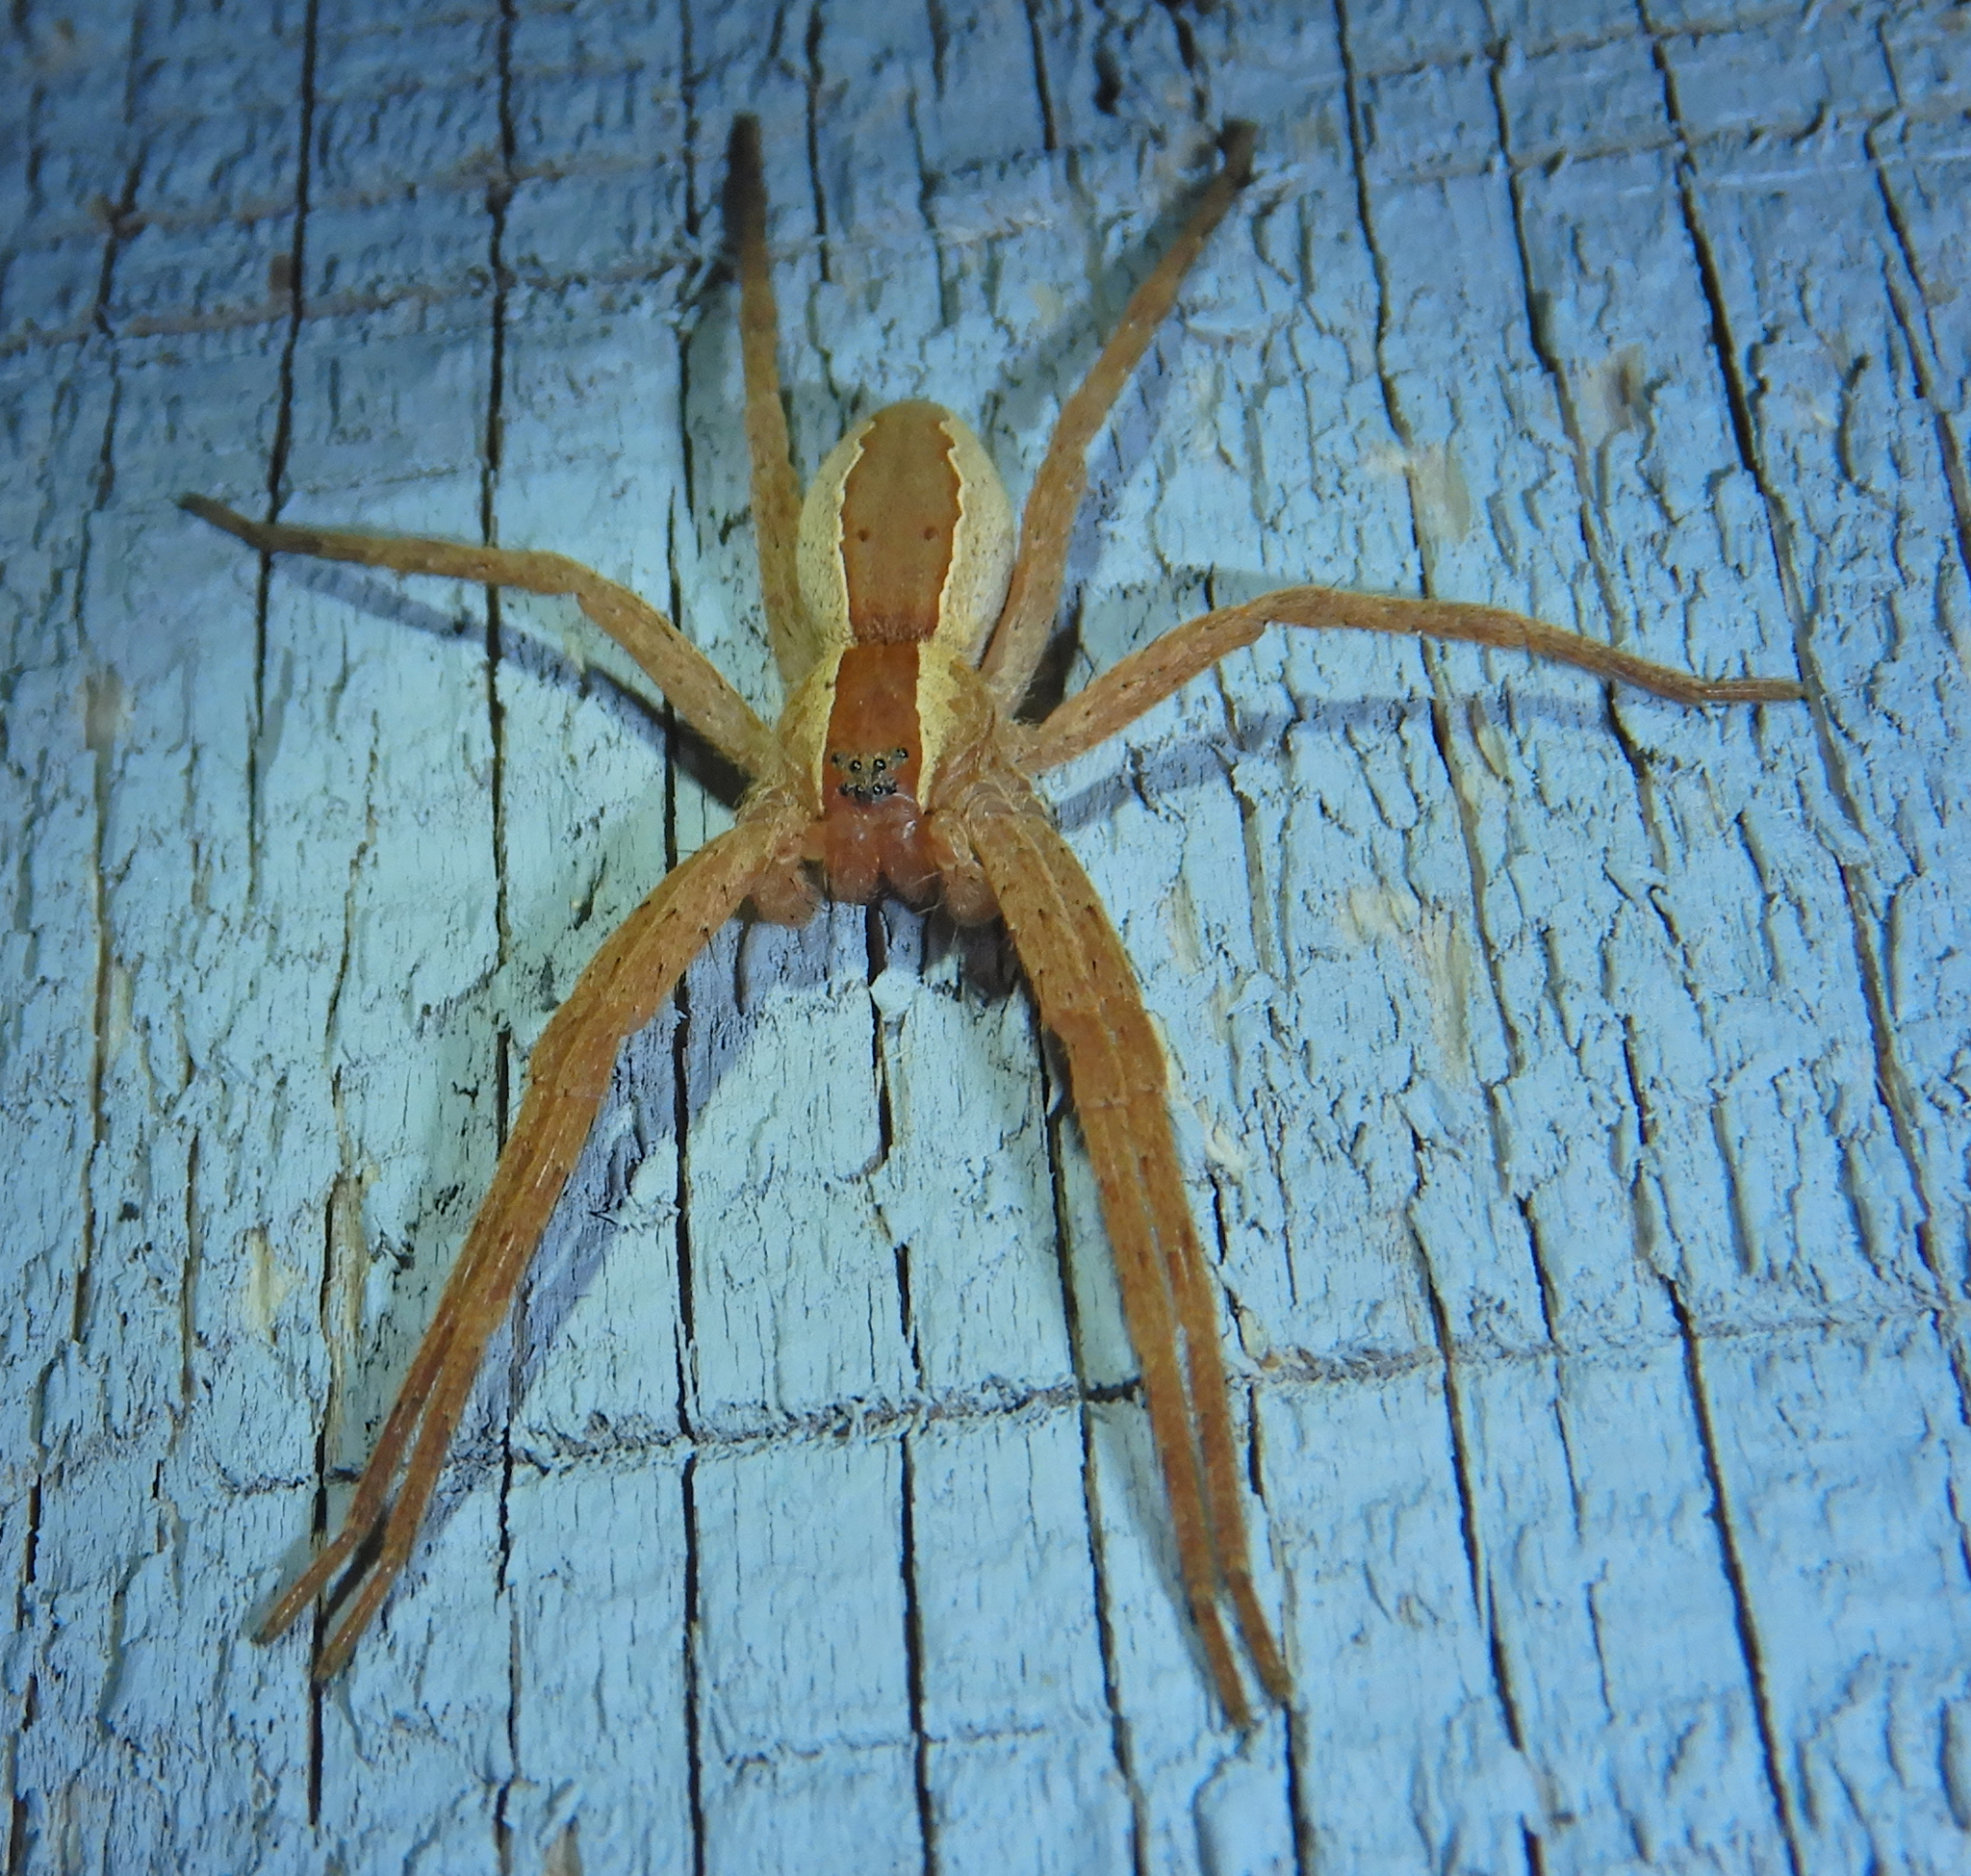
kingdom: Animalia
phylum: Arthropoda
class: Arachnida
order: Araneae
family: Pisauridae
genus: Pisaurina
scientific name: Pisaurina mira
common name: American nursery web spider
